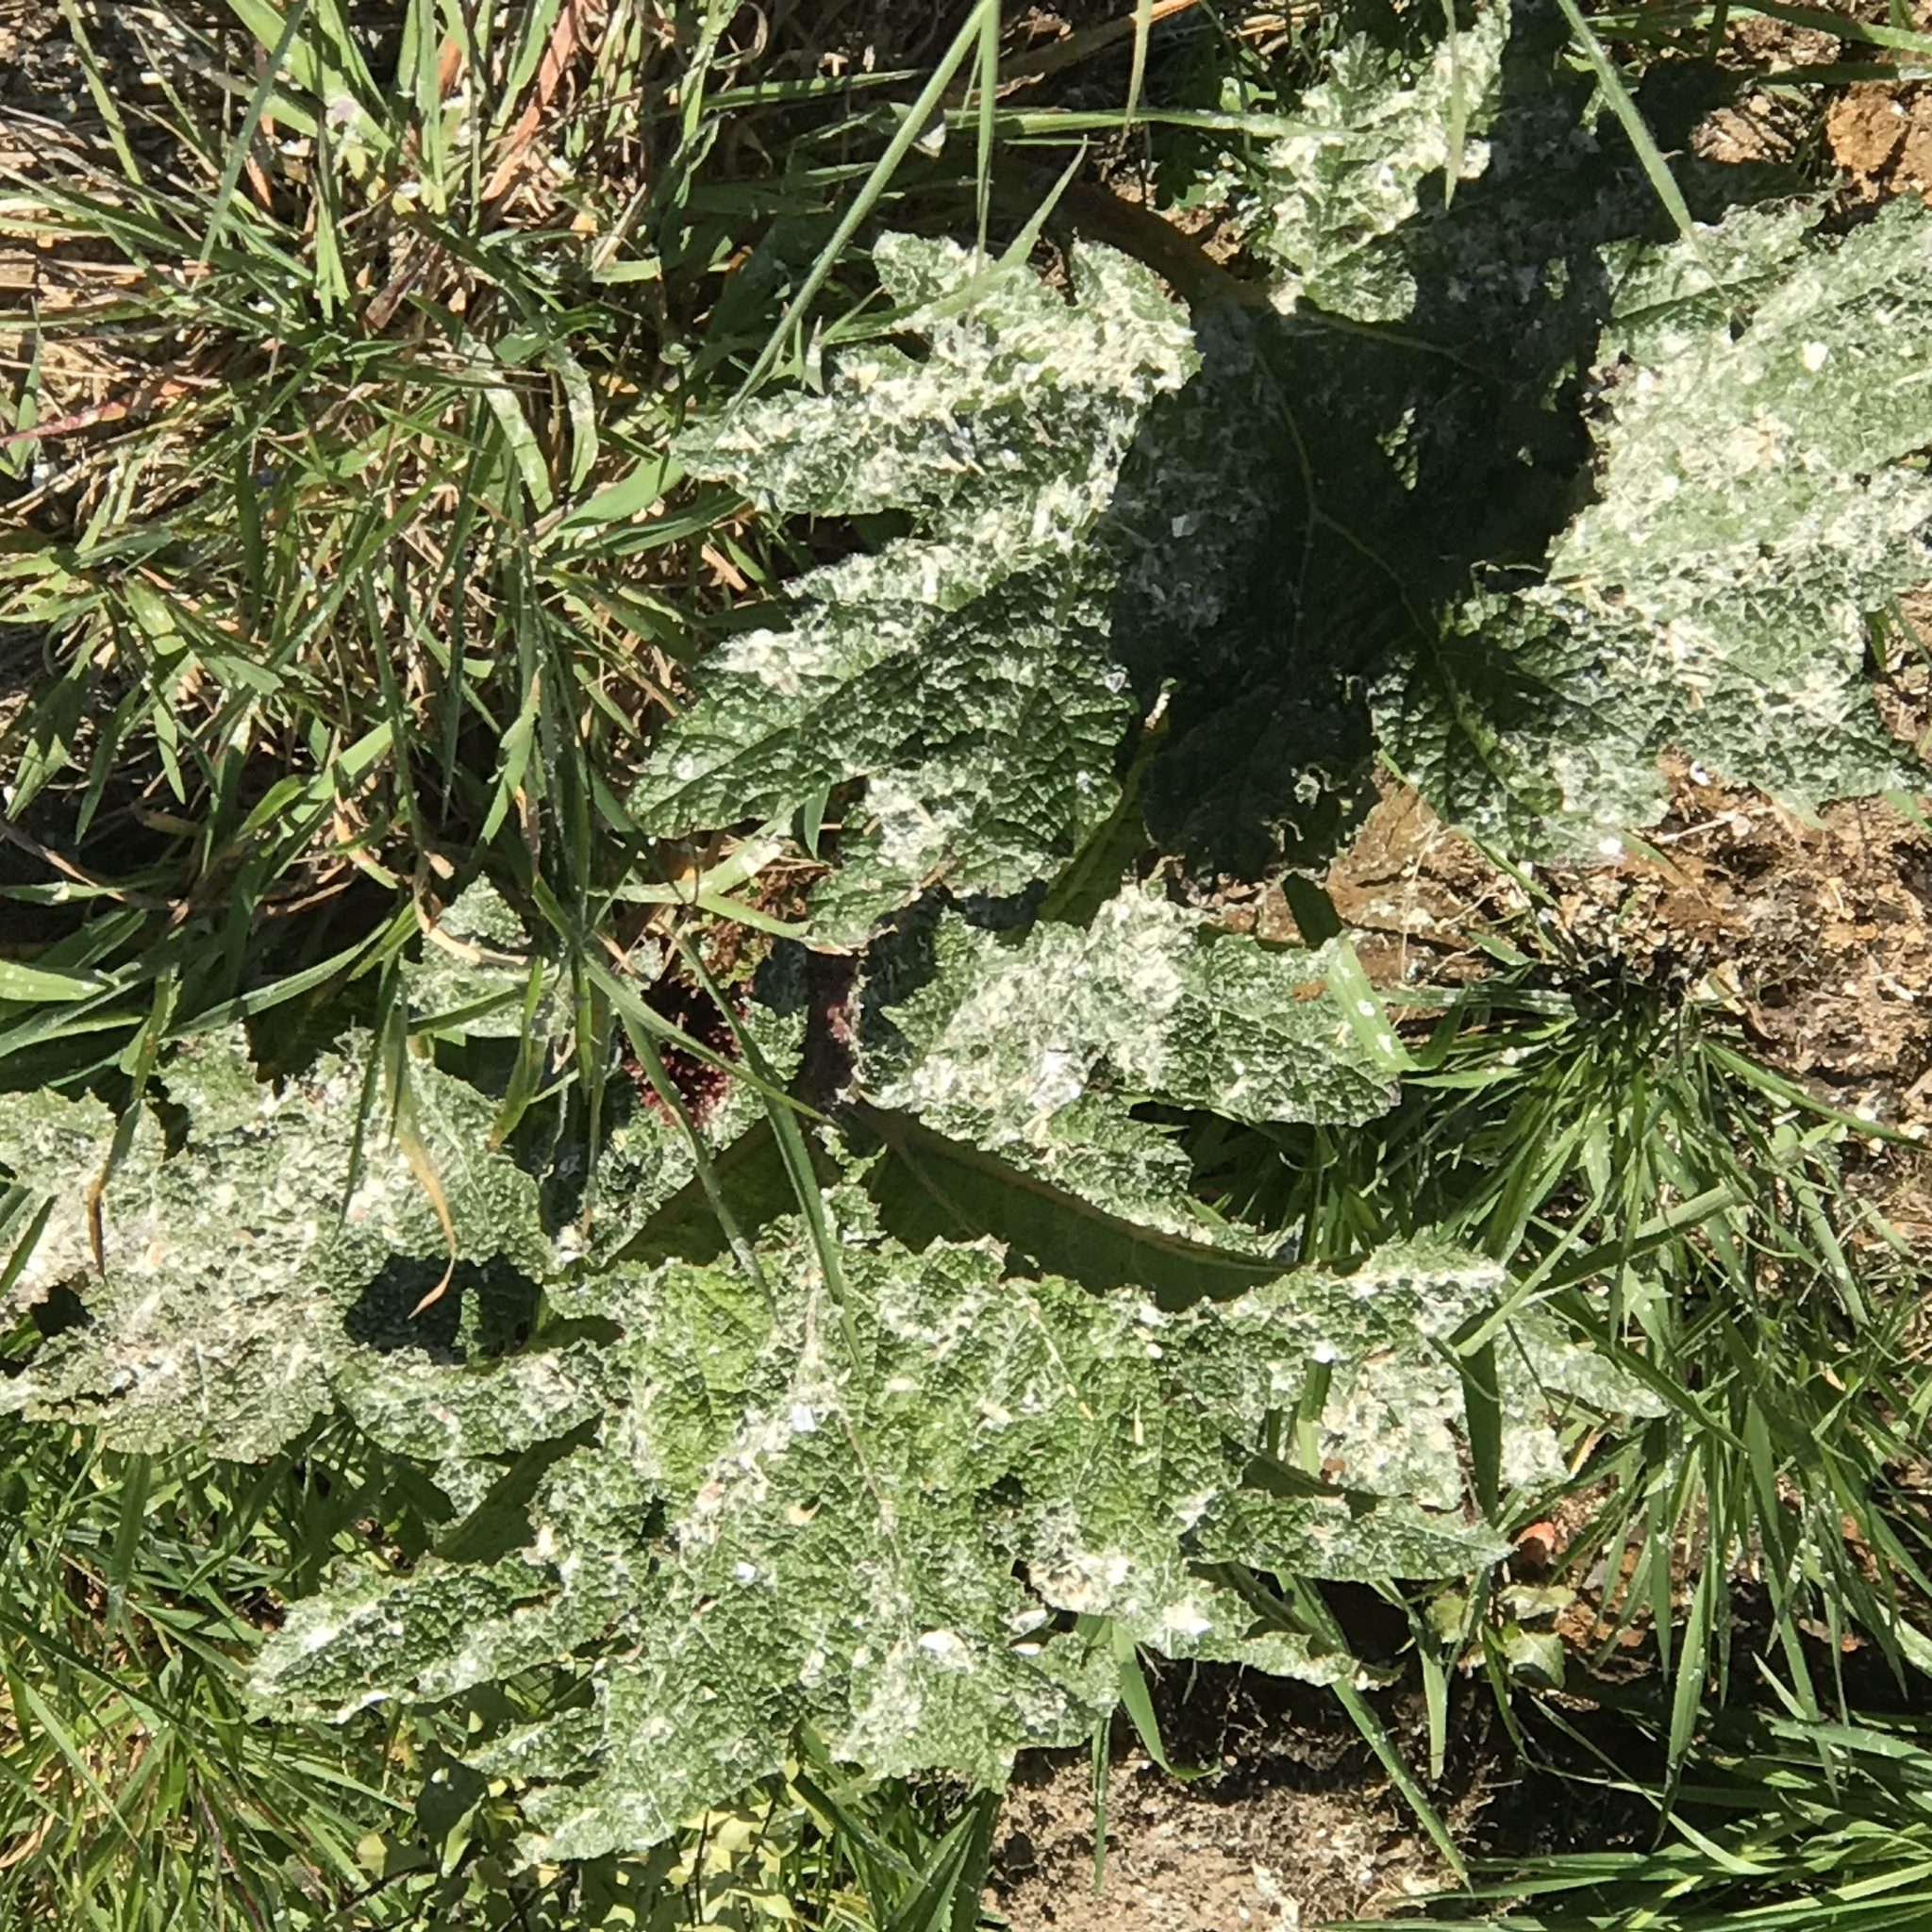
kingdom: Plantae
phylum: Tracheophyta
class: Magnoliopsida
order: Gunnerales
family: Gunneraceae
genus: Gunnera
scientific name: Gunnera tinctoria
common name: Giant-rhubarb
